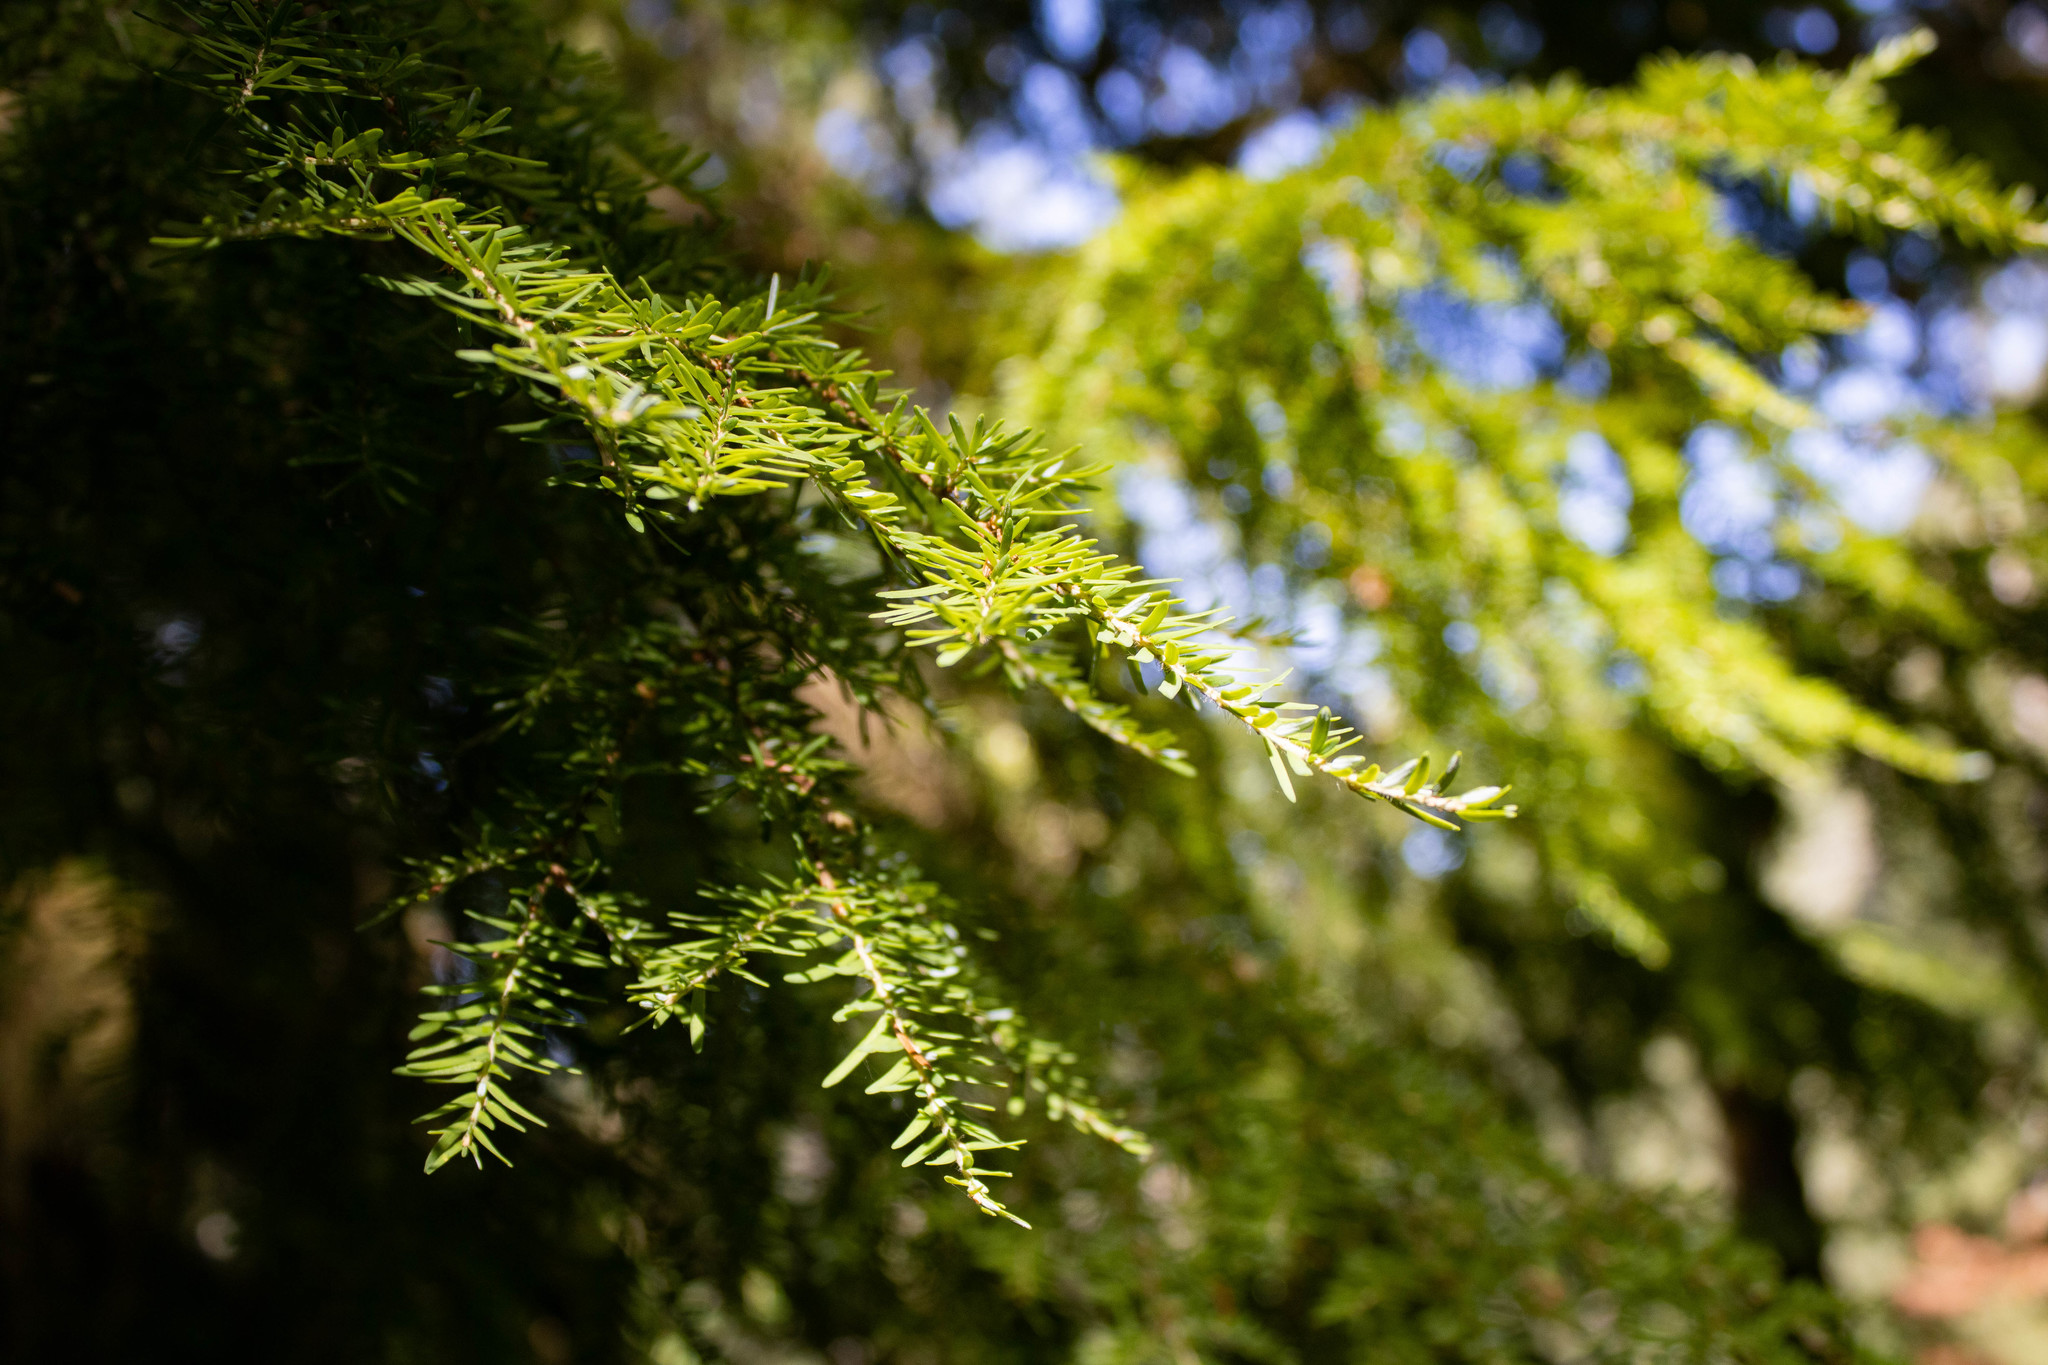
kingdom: Plantae
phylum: Tracheophyta
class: Pinopsida
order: Pinales
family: Pinaceae
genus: Tsuga
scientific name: Tsuga heterophylla
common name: Western hemlock
